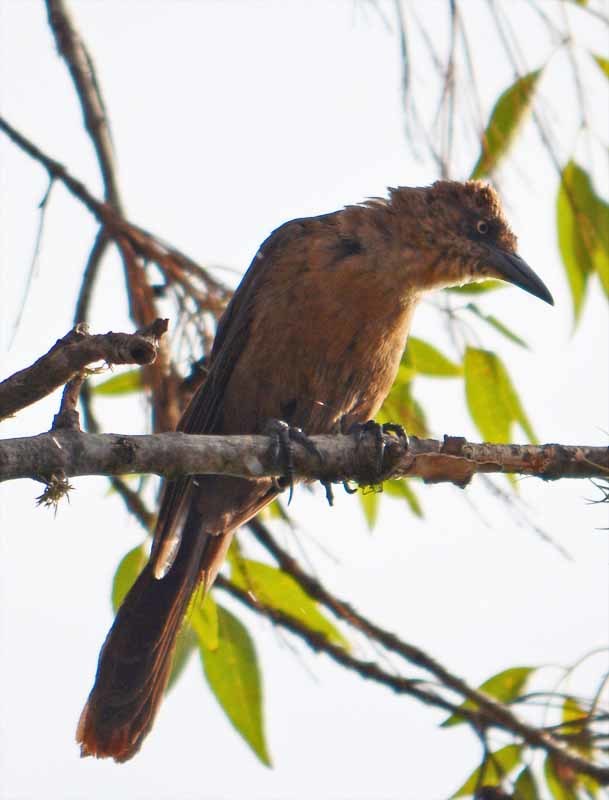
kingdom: Animalia
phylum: Chordata
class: Aves
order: Passeriformes
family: Icteridae
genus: Quiscalus
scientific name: Quiscalus mexicanus
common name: Great-tailed grackle
